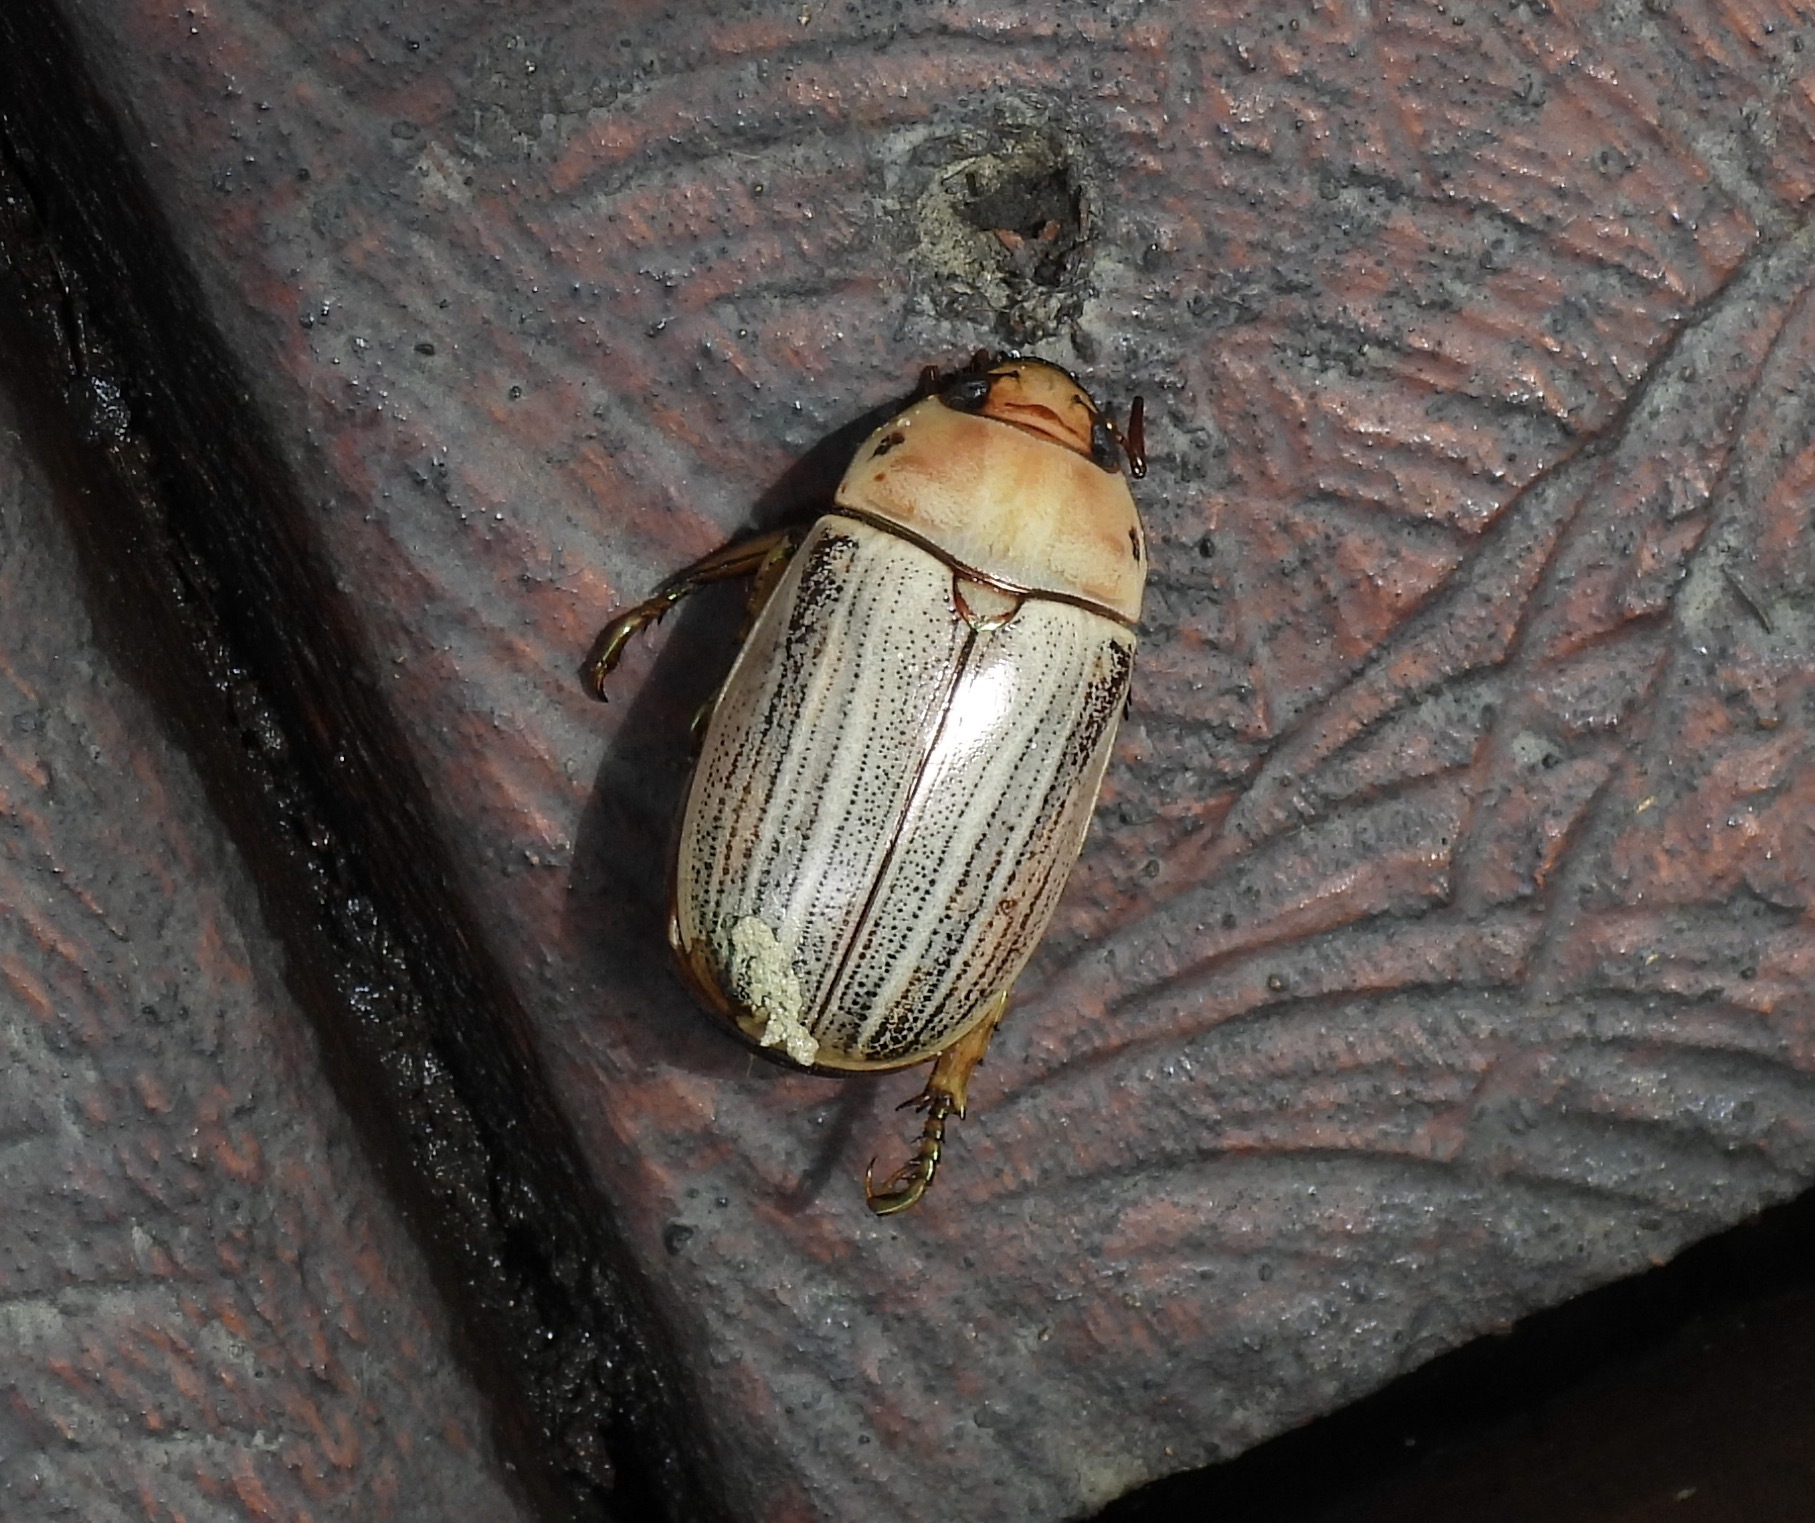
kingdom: Animalia
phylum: Arthropoda
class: Insecta
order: Coleoptera
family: Scarabaeidae
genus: Pelidnota
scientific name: Pelidnota virescens
